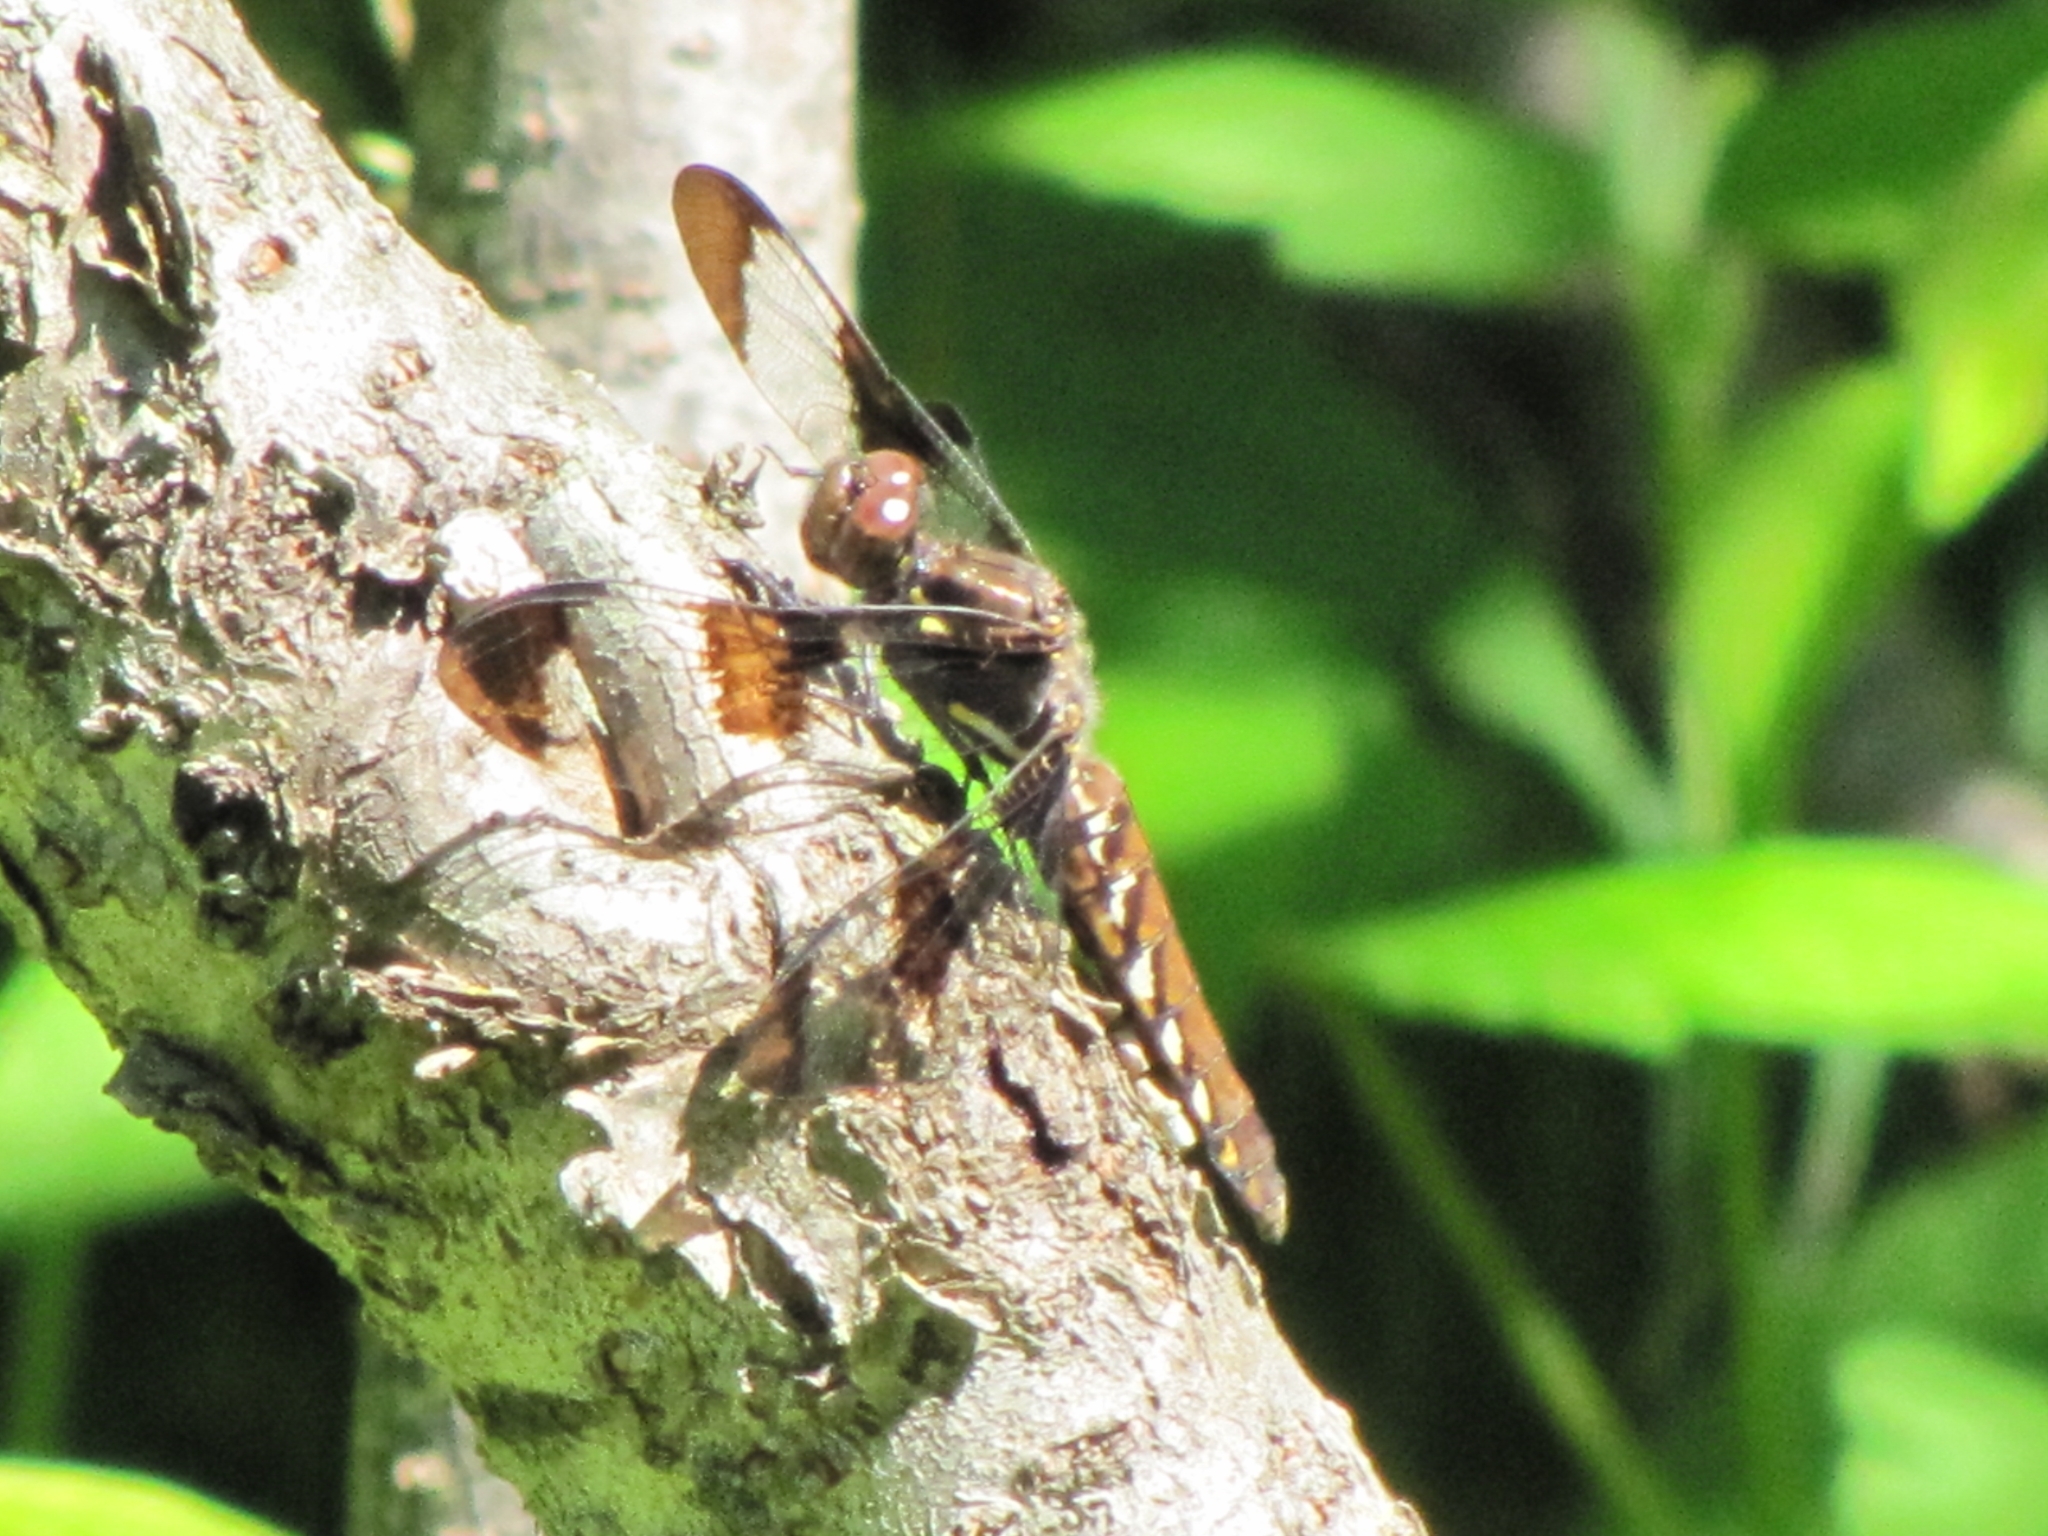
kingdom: Animalia
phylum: Arthropoda
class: Insecta
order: Odonata
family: Libellulidae
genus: Plathemis
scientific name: Plathemis lydia
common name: Common whitetail
